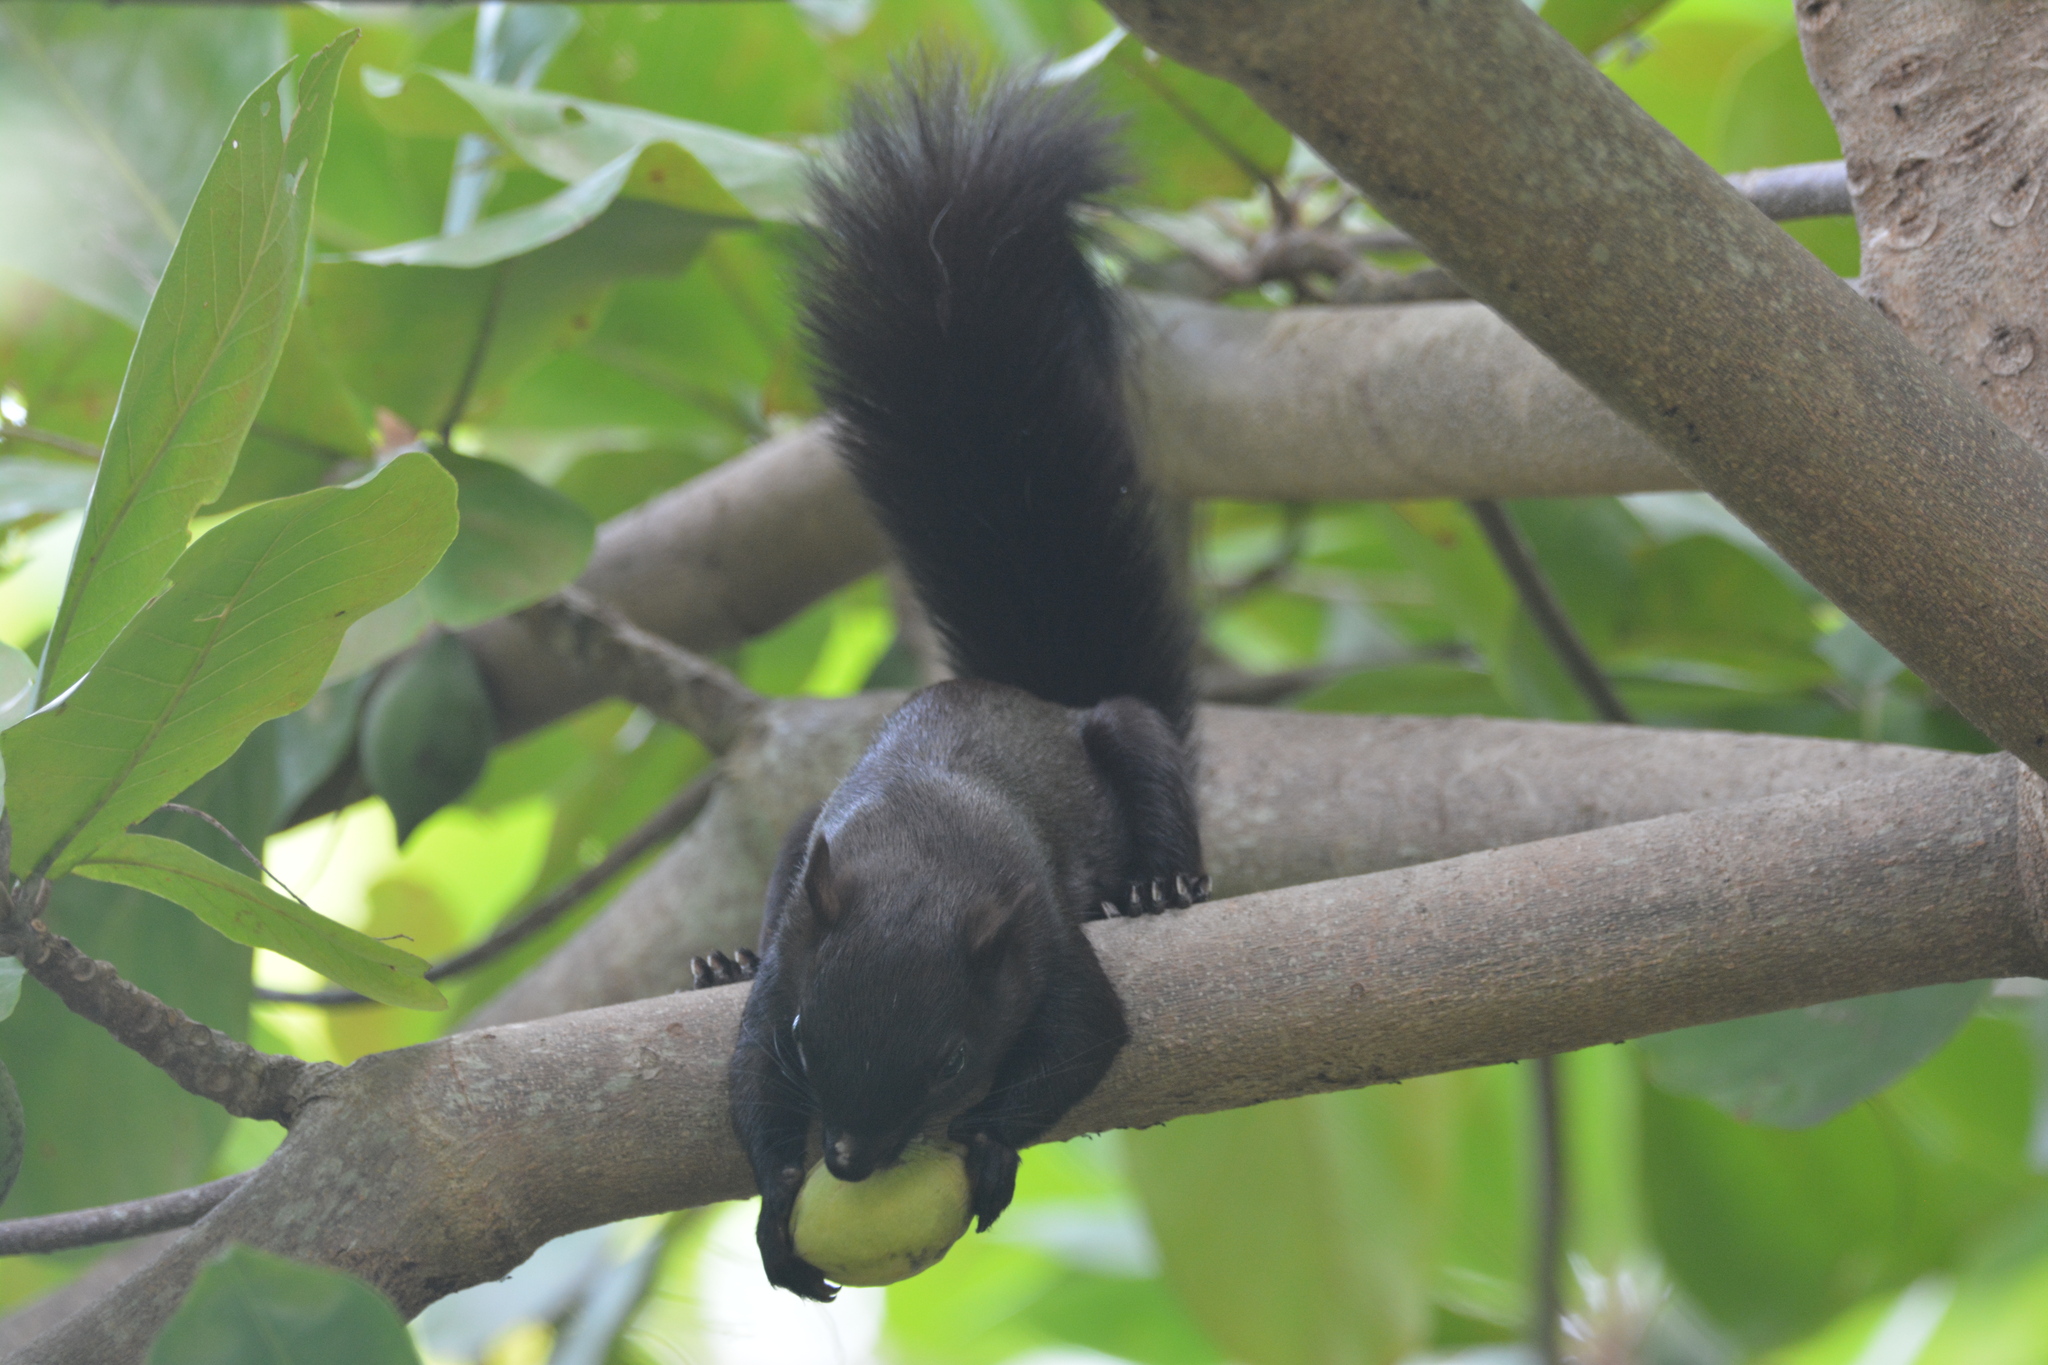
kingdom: Animalia
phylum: Chordata
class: Mammalia
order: Rodentia
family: Sciuridae
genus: Sciurus
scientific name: Sciurus variegatoides
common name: Variegated squirrel
